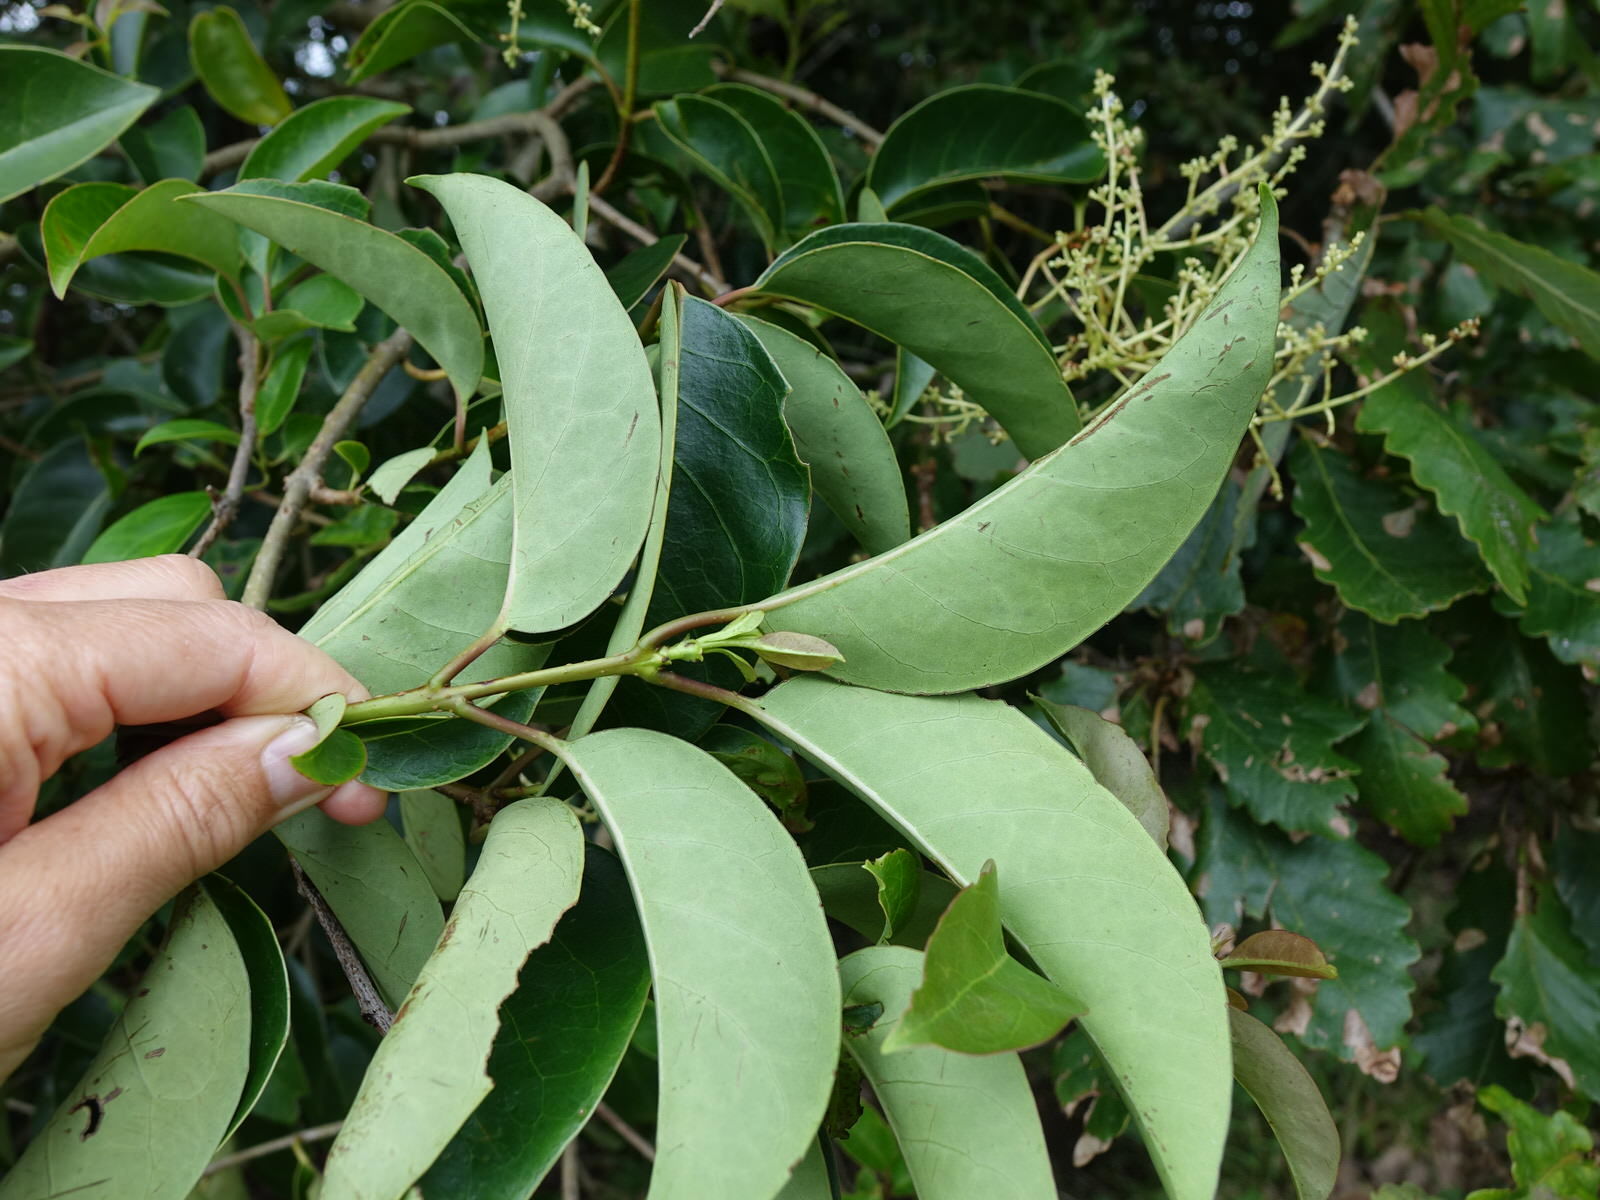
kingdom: Plantae
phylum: Tracheophyta
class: Magnoliopsida
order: Lamiales
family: Oleaceae
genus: Ligustrum
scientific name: Ligustrum lucidum
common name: Glossy privet
